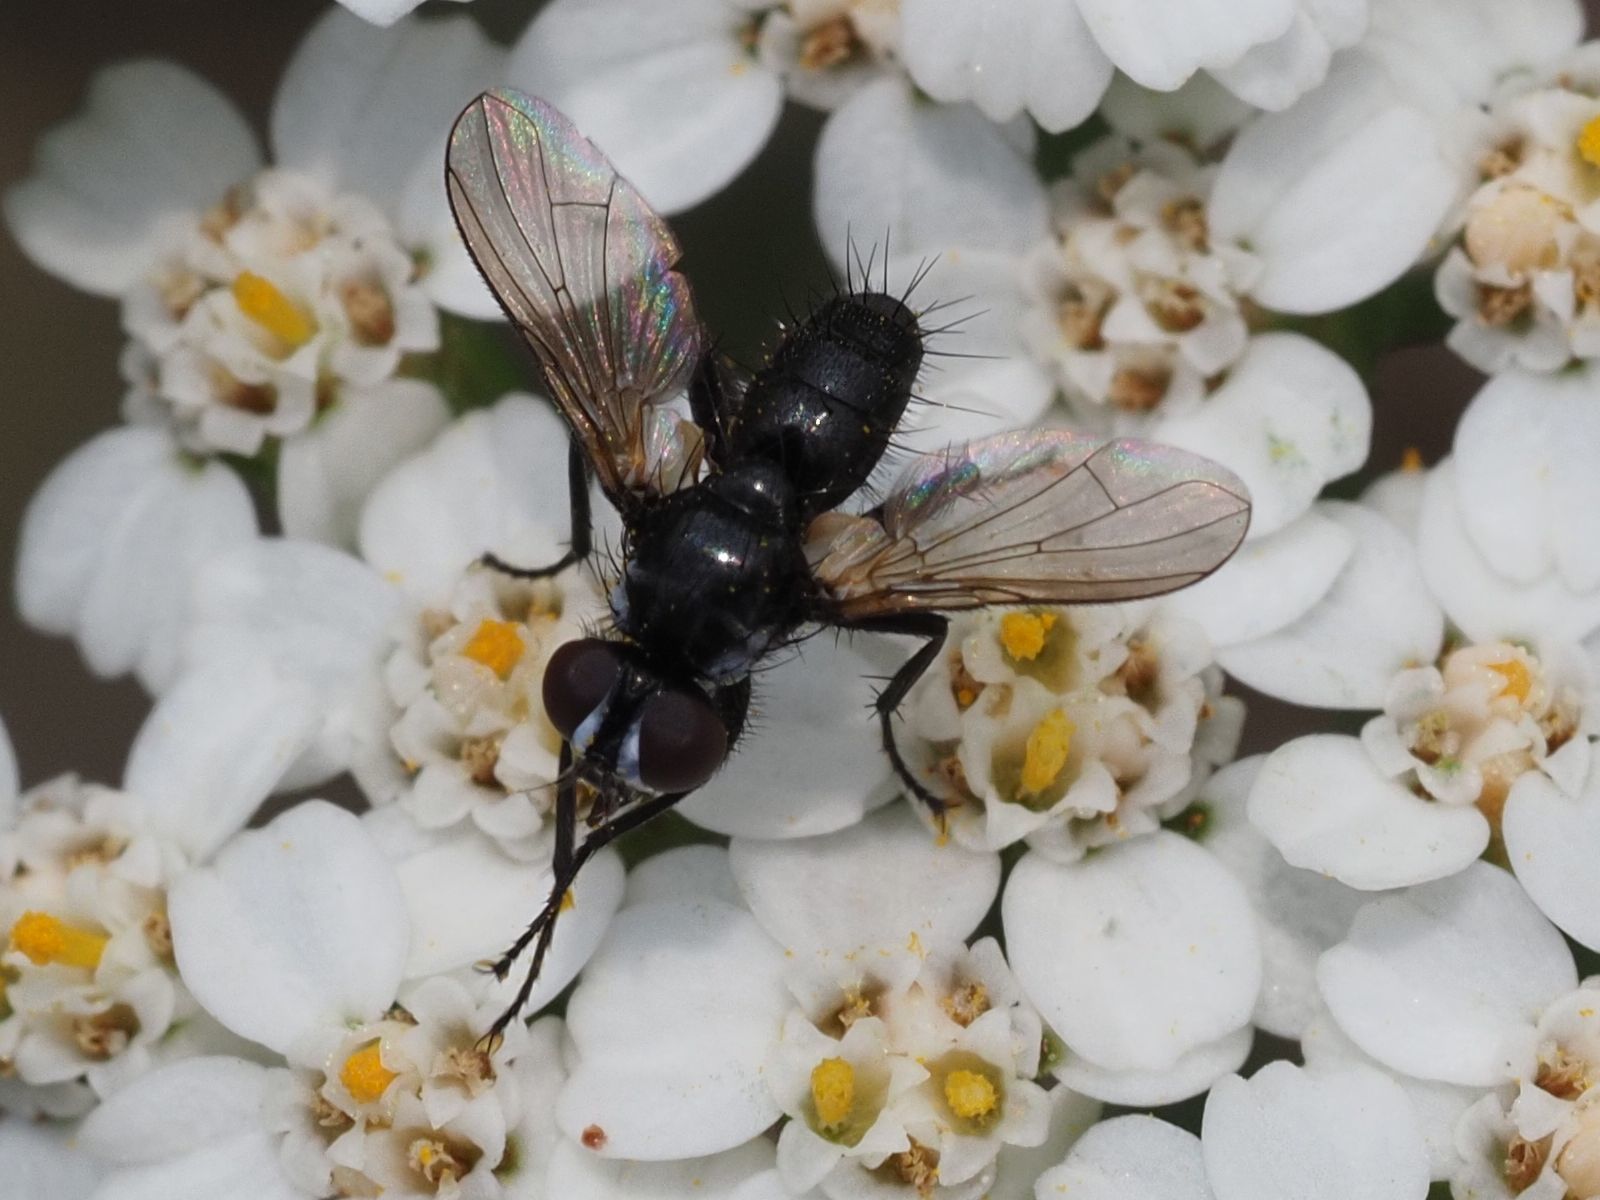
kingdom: Animalia
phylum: Arthropoda
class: Insecta
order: Diptera
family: Tachinidae
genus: Phania
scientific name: Phania funesta
